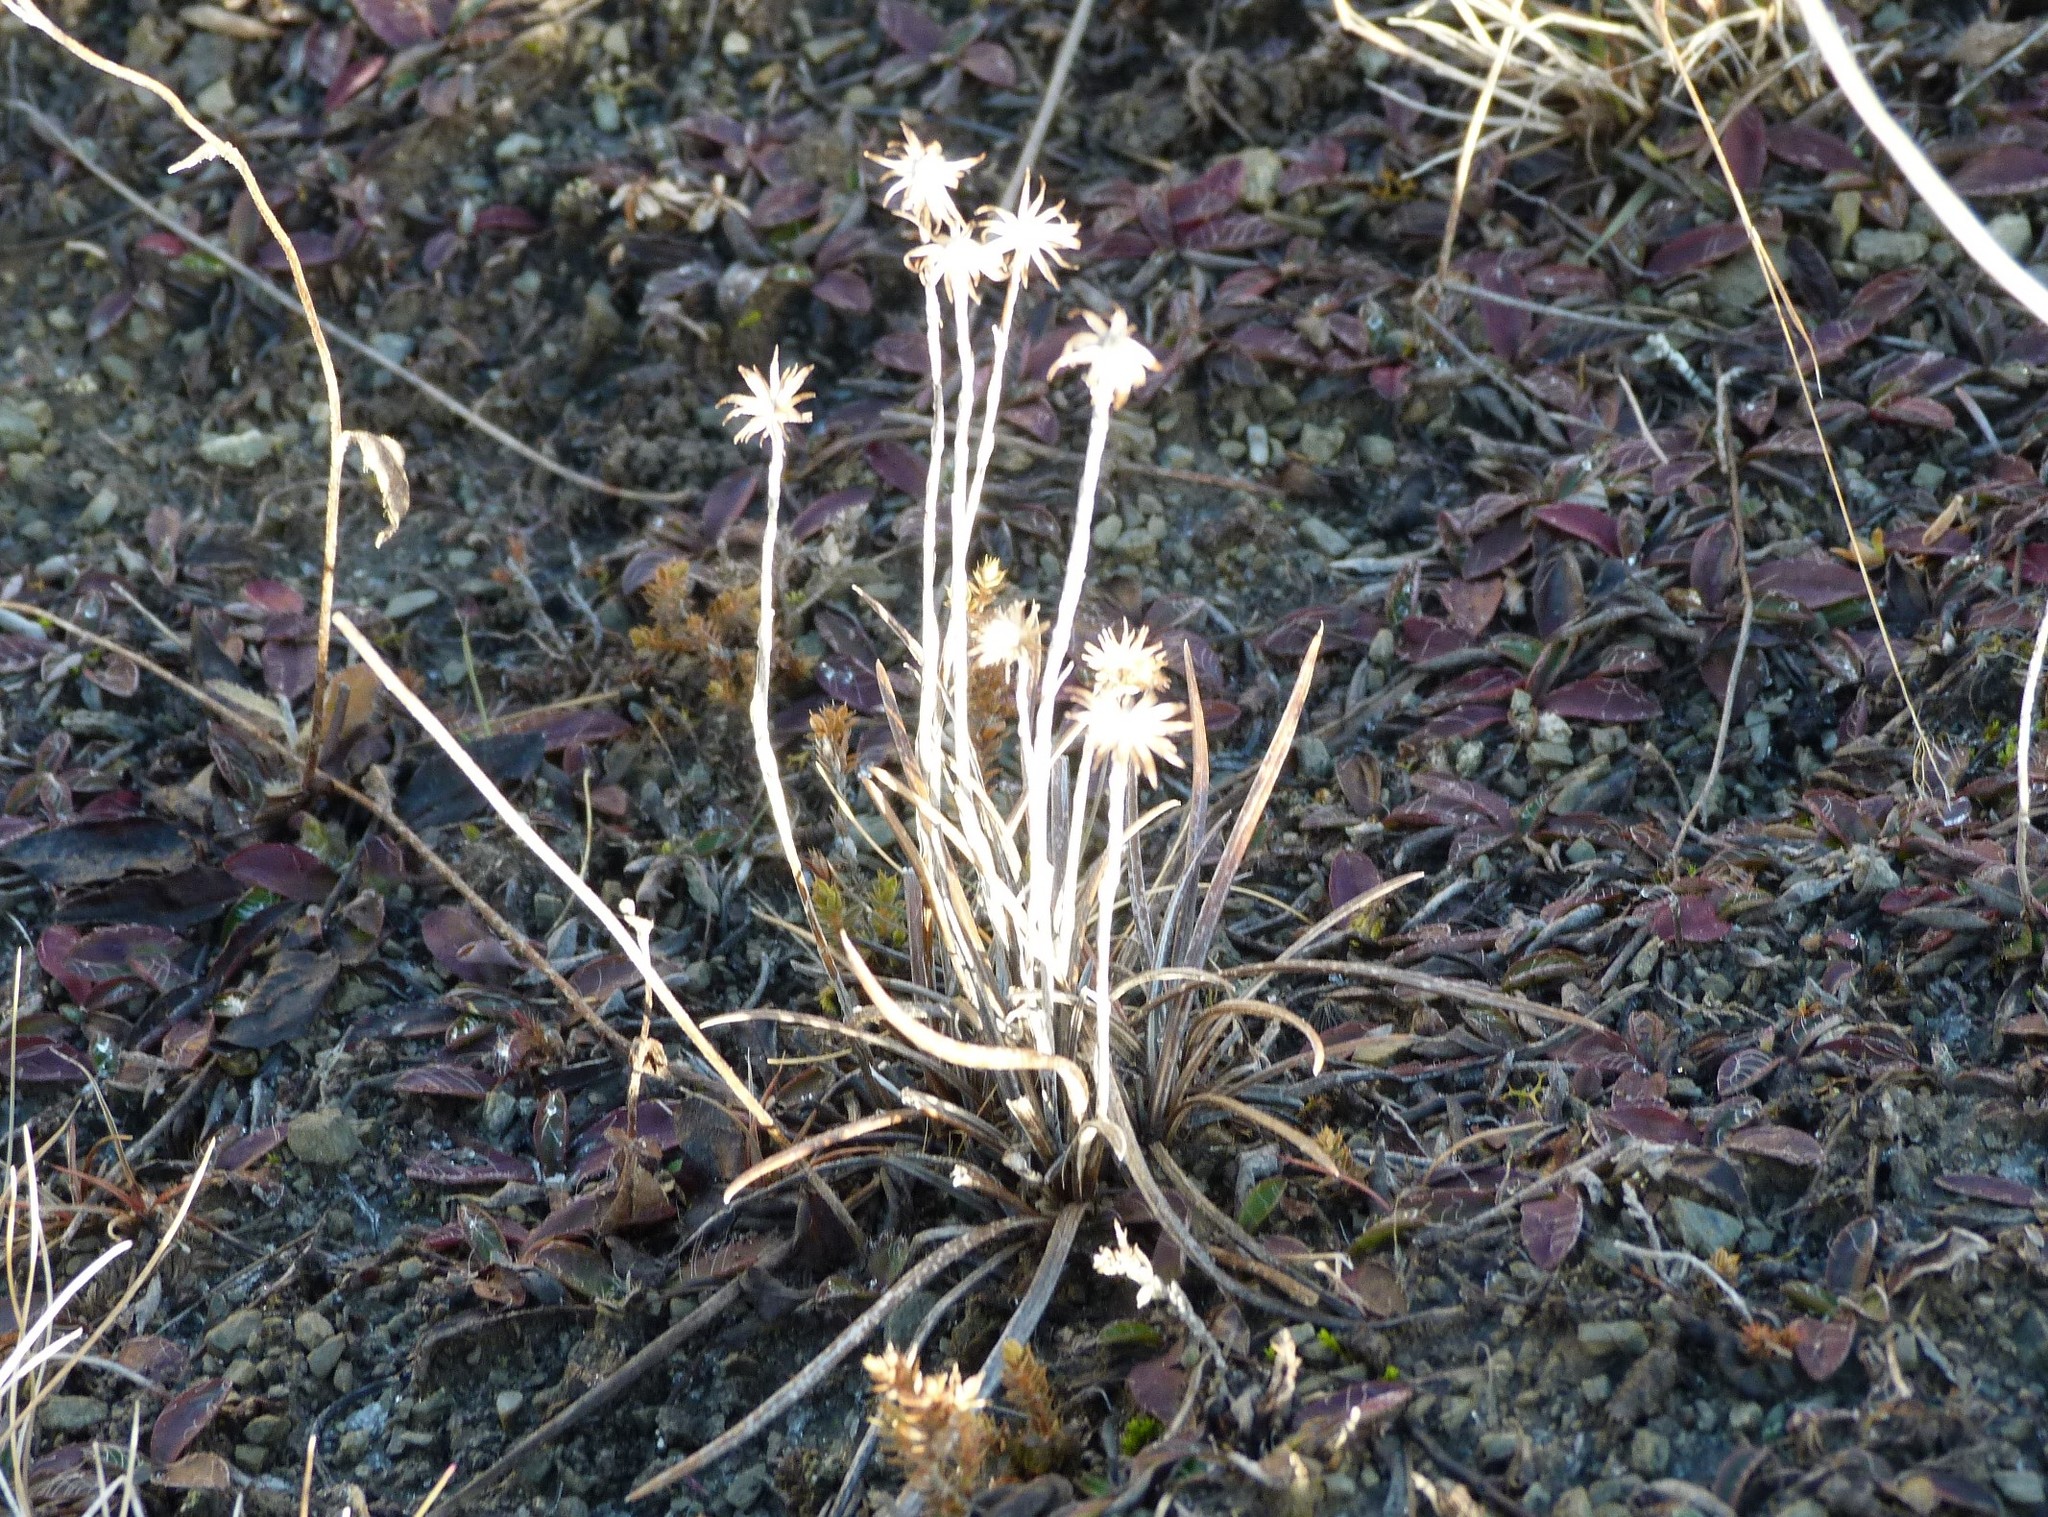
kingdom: Plantae
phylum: Tracheophyta
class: Magnoliopsida
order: Asterales
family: Asteraceae
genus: Celmisia
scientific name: Celmisia gracilenta
